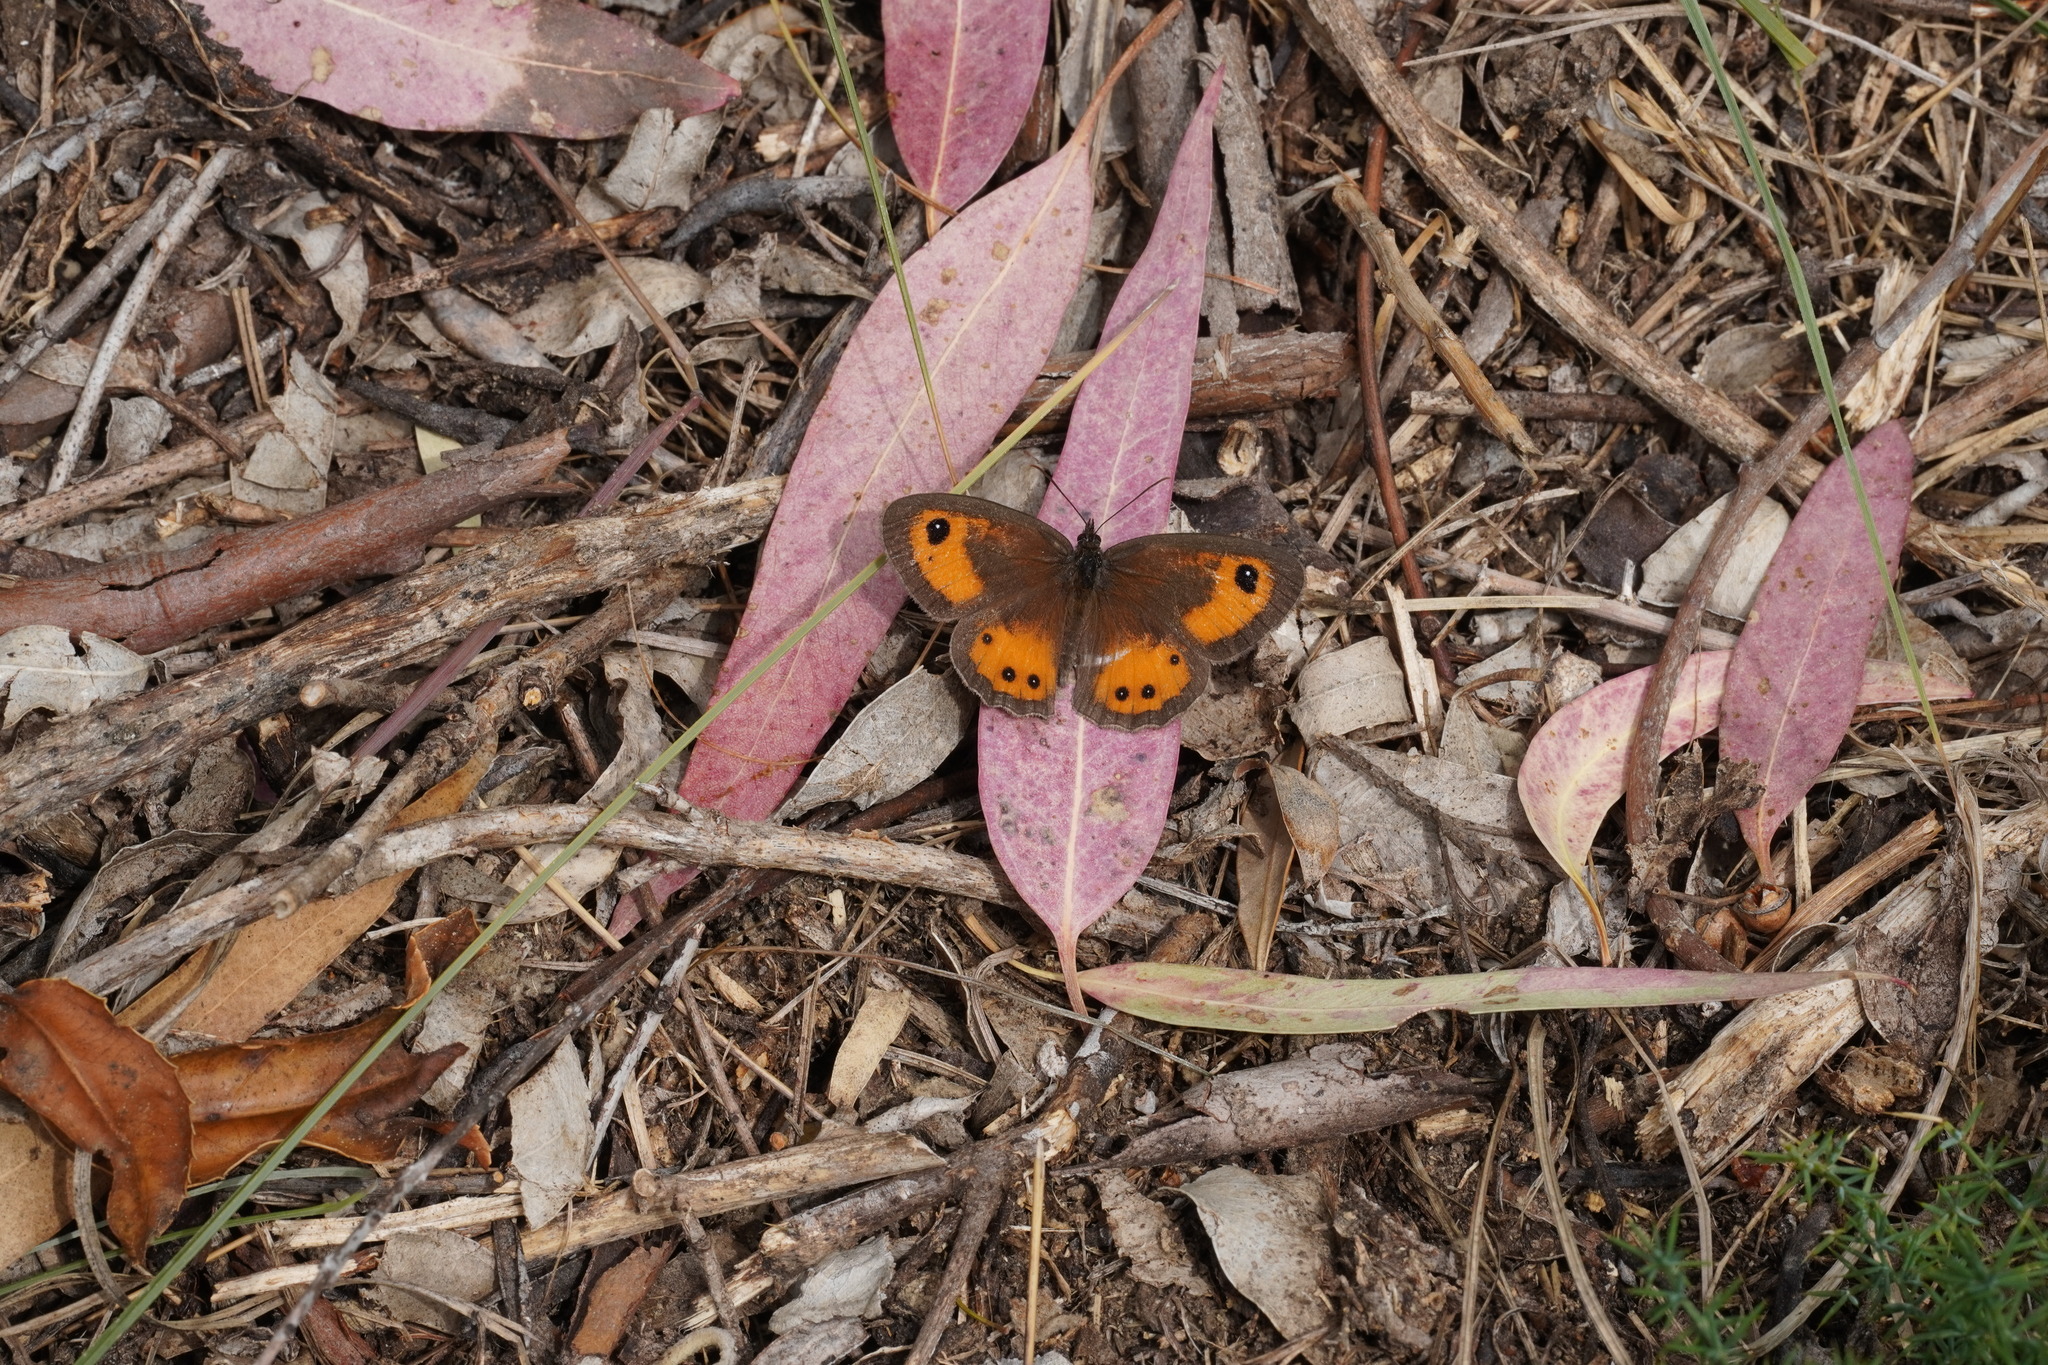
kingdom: Animalia
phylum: Arthropoda
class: Insecta
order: Lepidoptera
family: Nymphalidae
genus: Pyronia
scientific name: Pyronia bathseba
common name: Spanish gatekeeper
